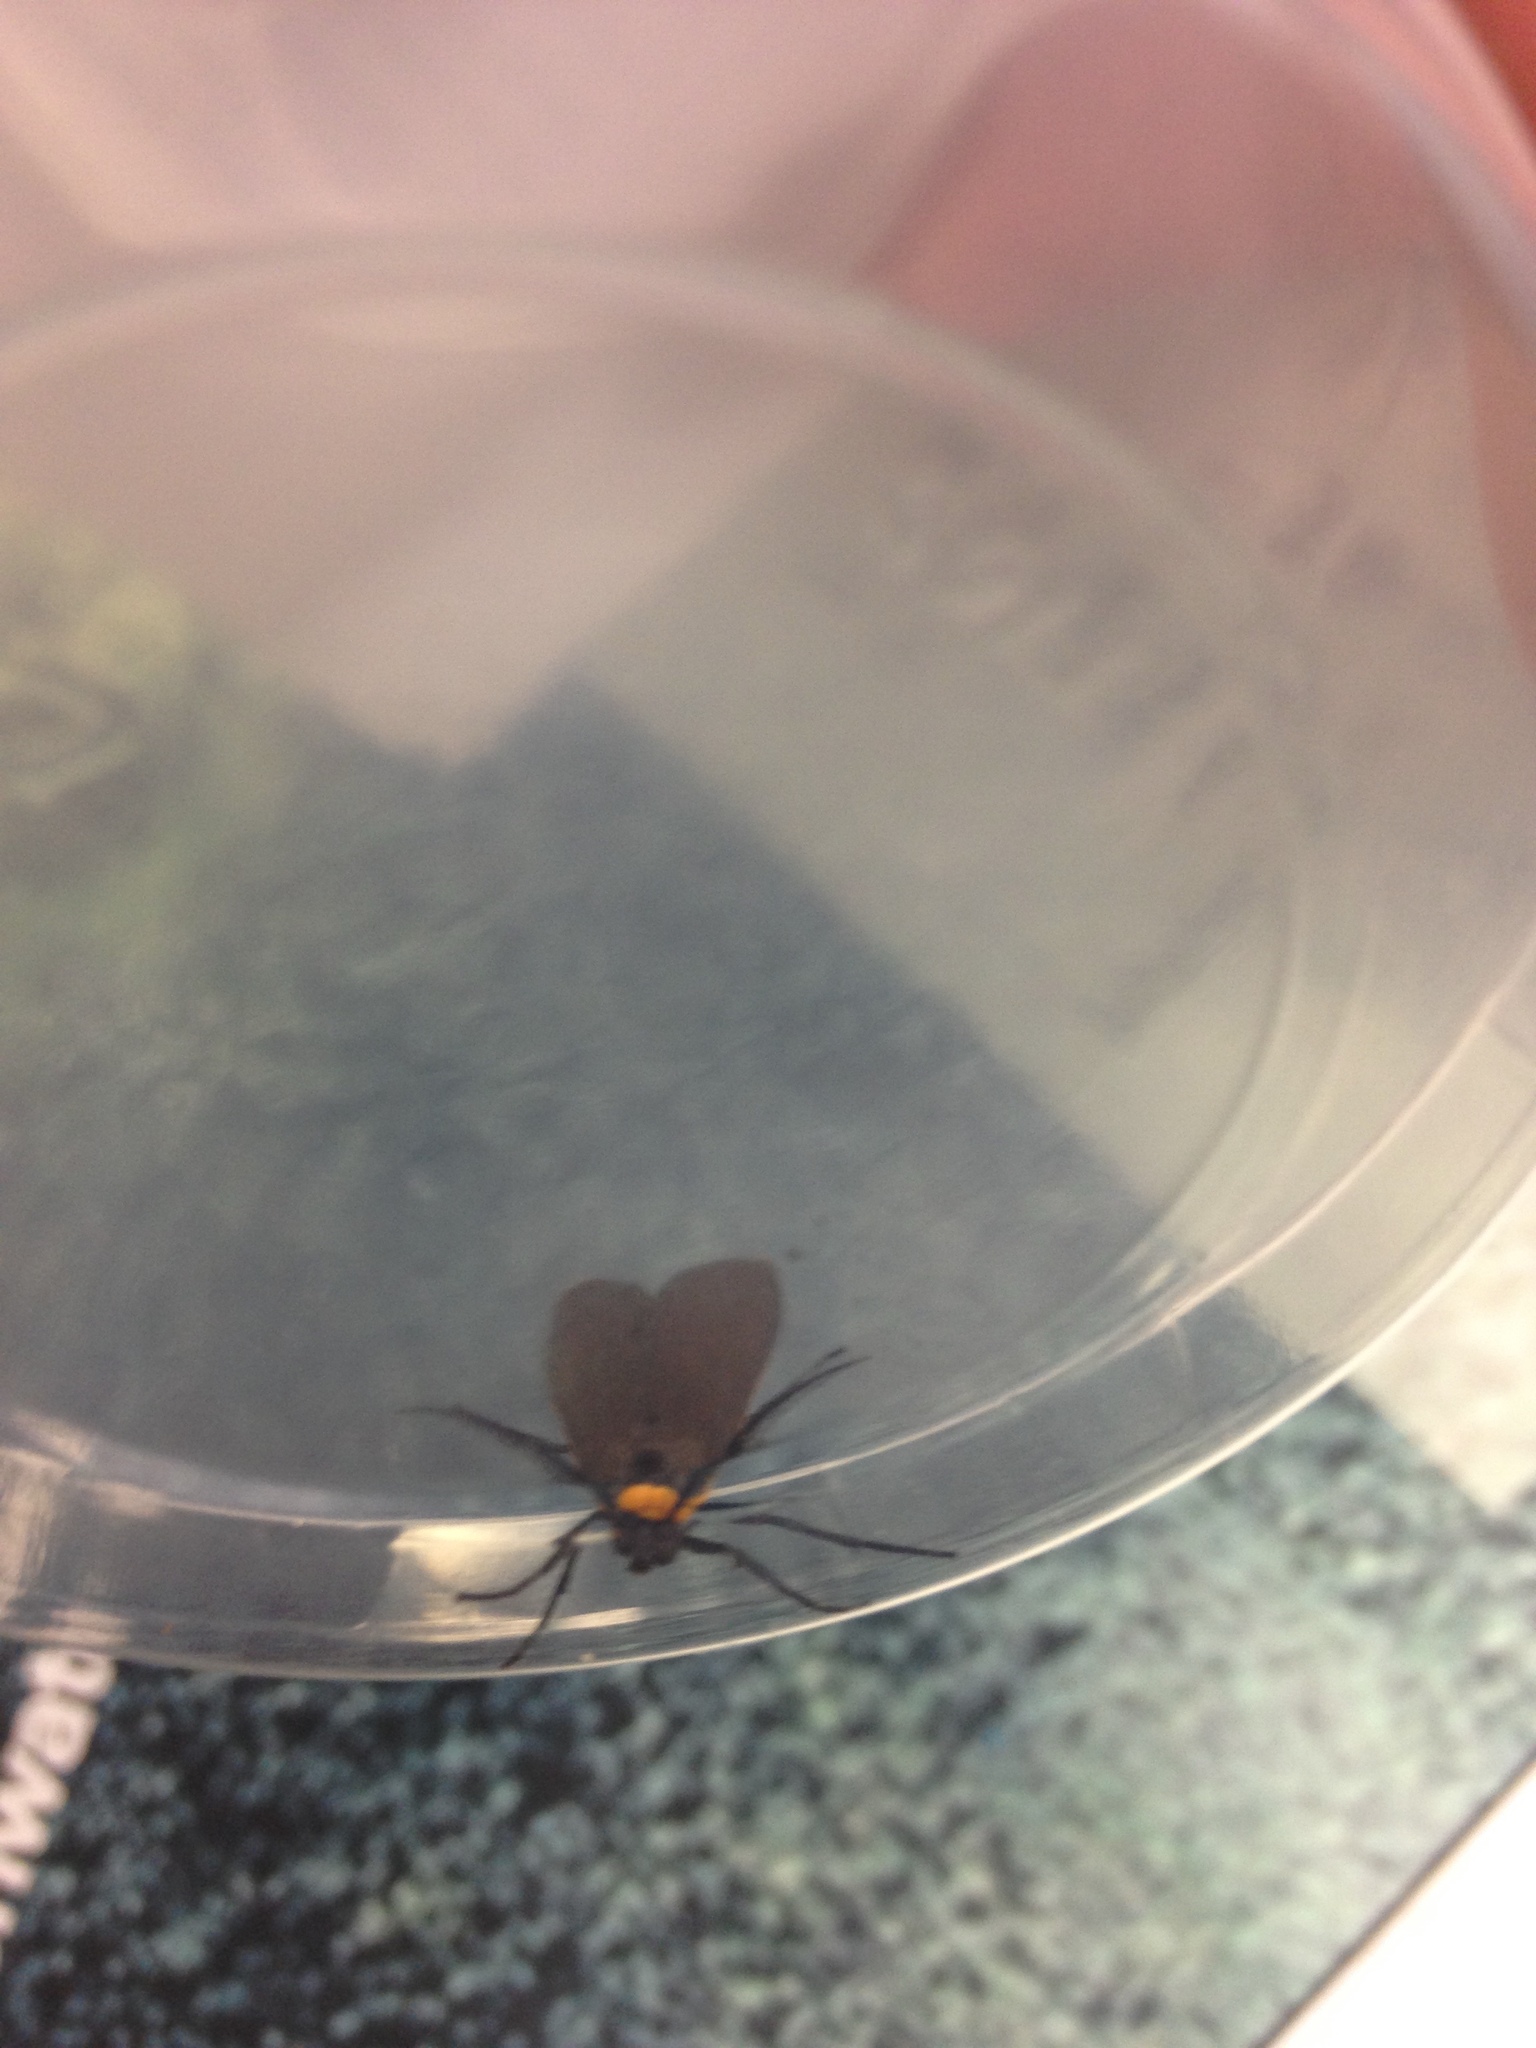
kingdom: Animalia
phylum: Arthropoda
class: Insecta
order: Lepidoptera
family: Erebidae
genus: Cisseps
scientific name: Cisseps fulvicollis
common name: Yellow-collared scape moth
